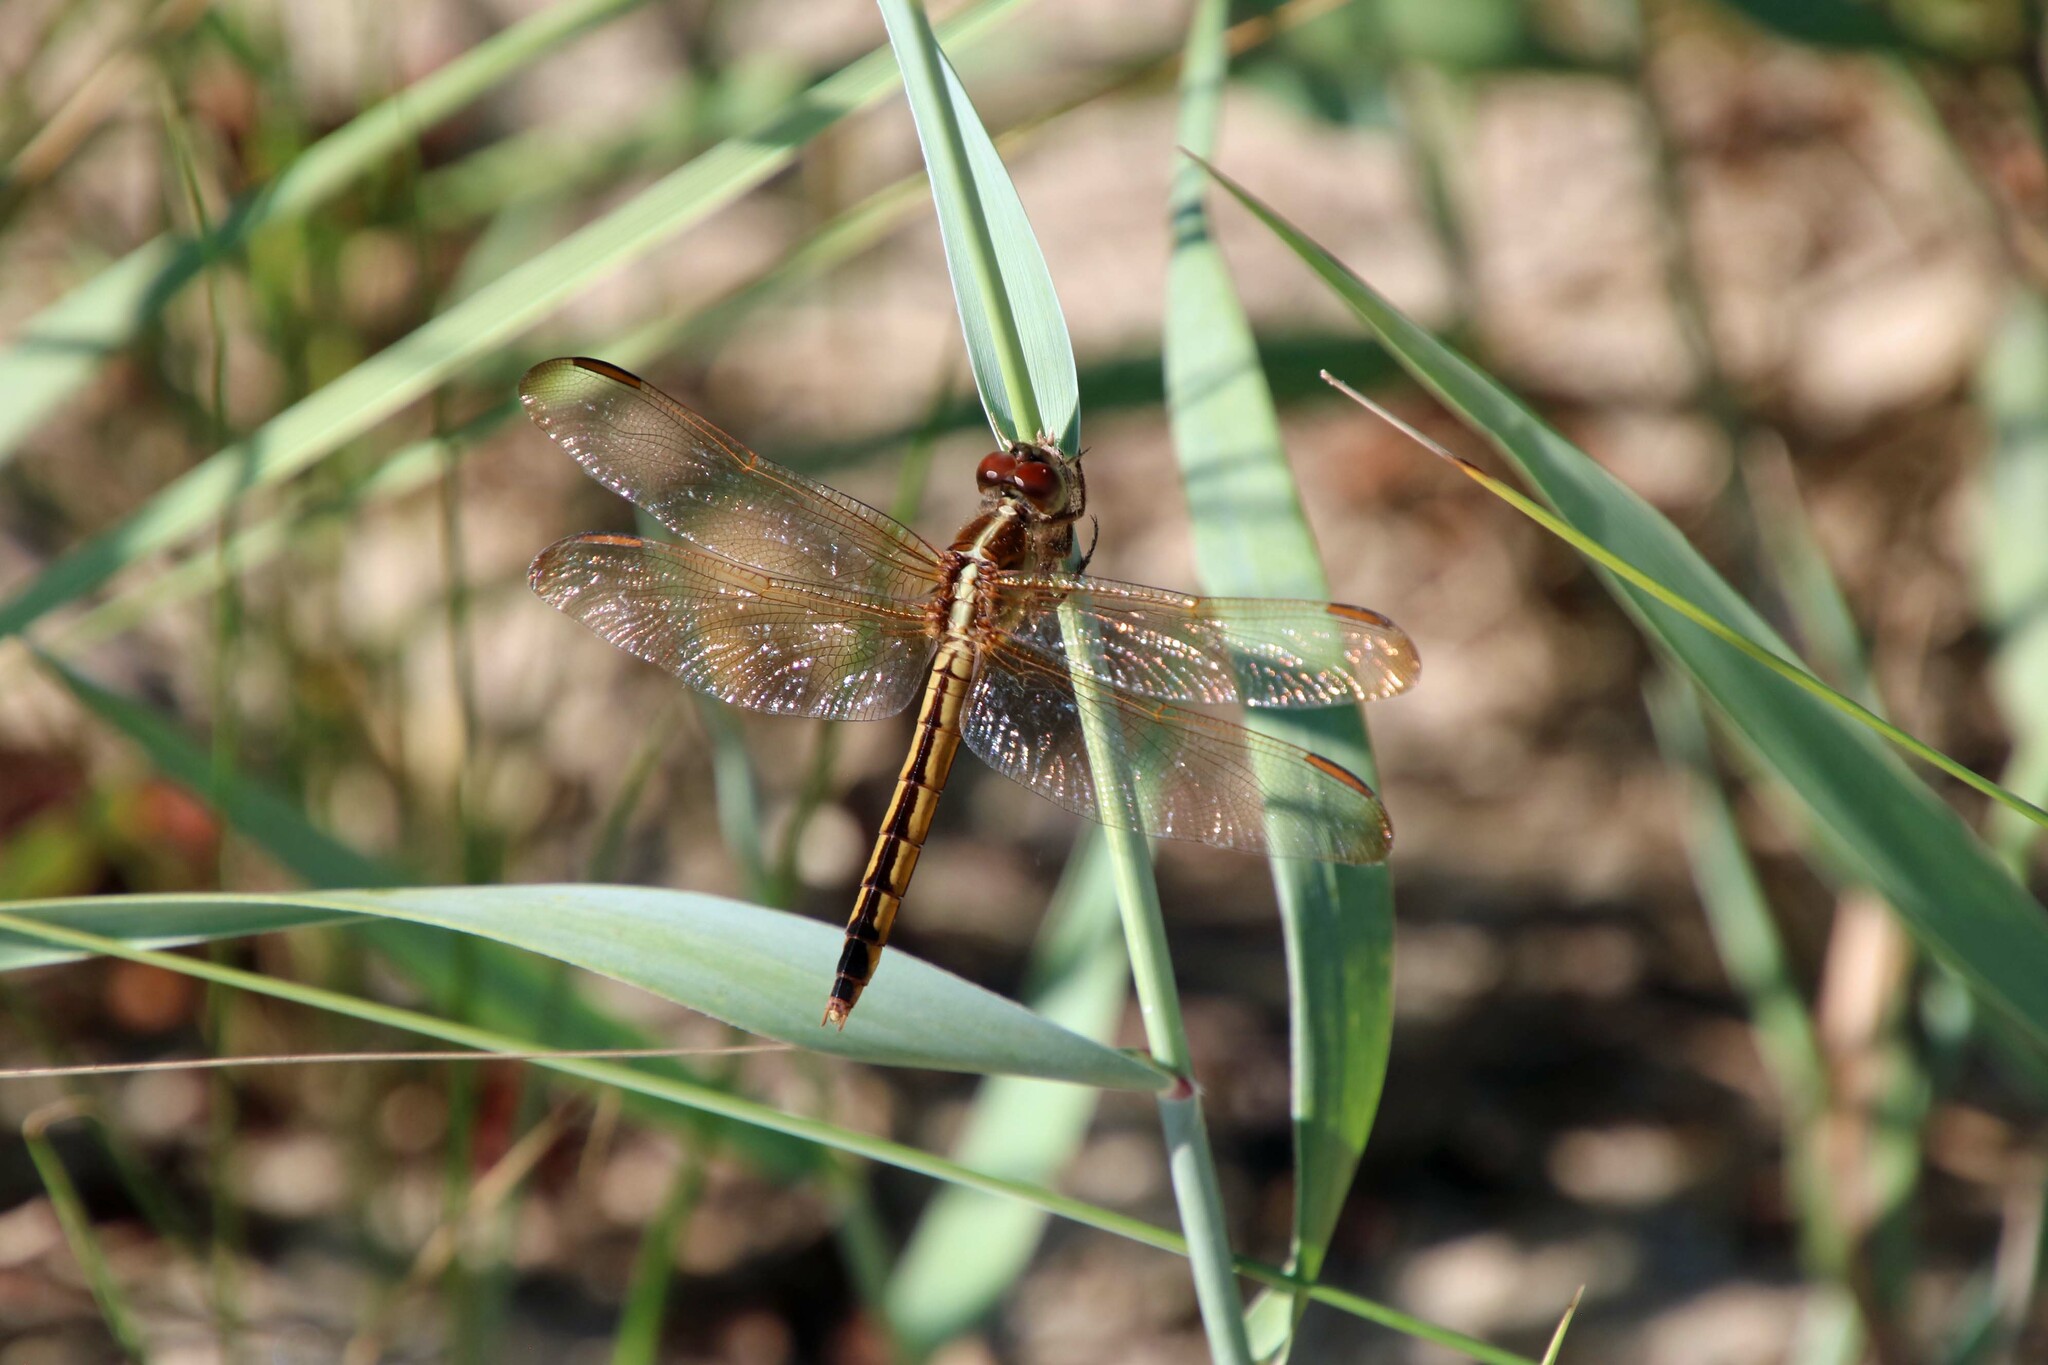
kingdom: Animalia
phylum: Arthropoda
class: Insecta
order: Odonata
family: Libellulidae
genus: Libellula
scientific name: Libellula needhami
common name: Needham's skimmer
